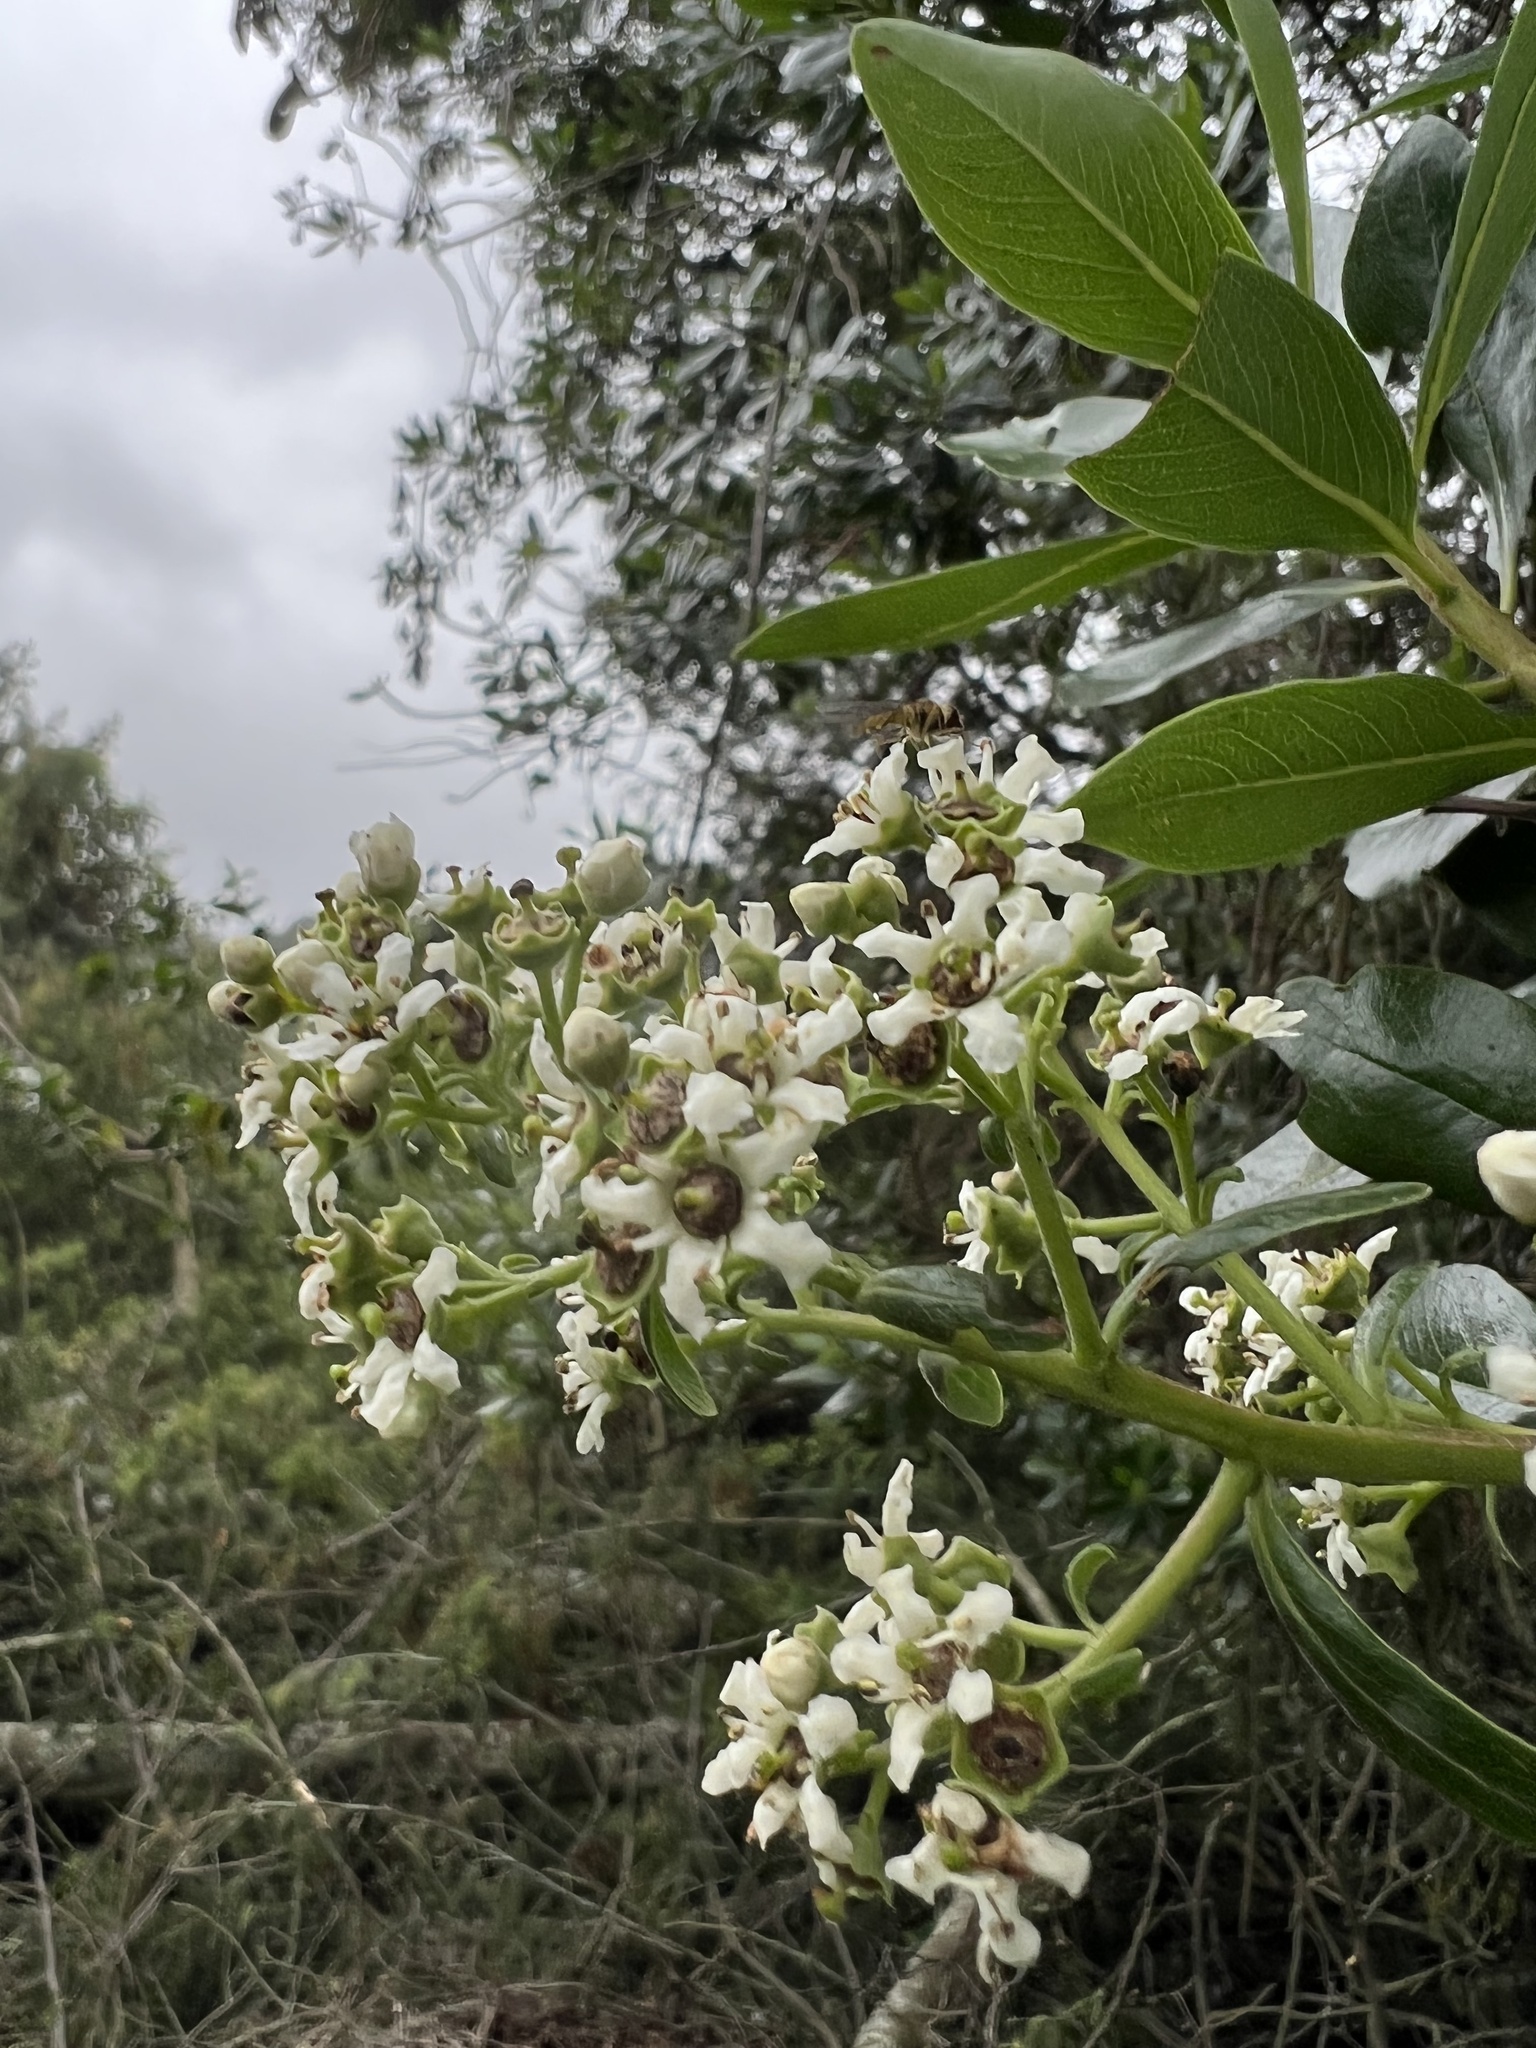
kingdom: Plantae
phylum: Tracheophyta
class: Magnoliopsida
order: Escalloniales
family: Escalloniaceae
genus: Escallonia
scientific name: Escallonia discolor
